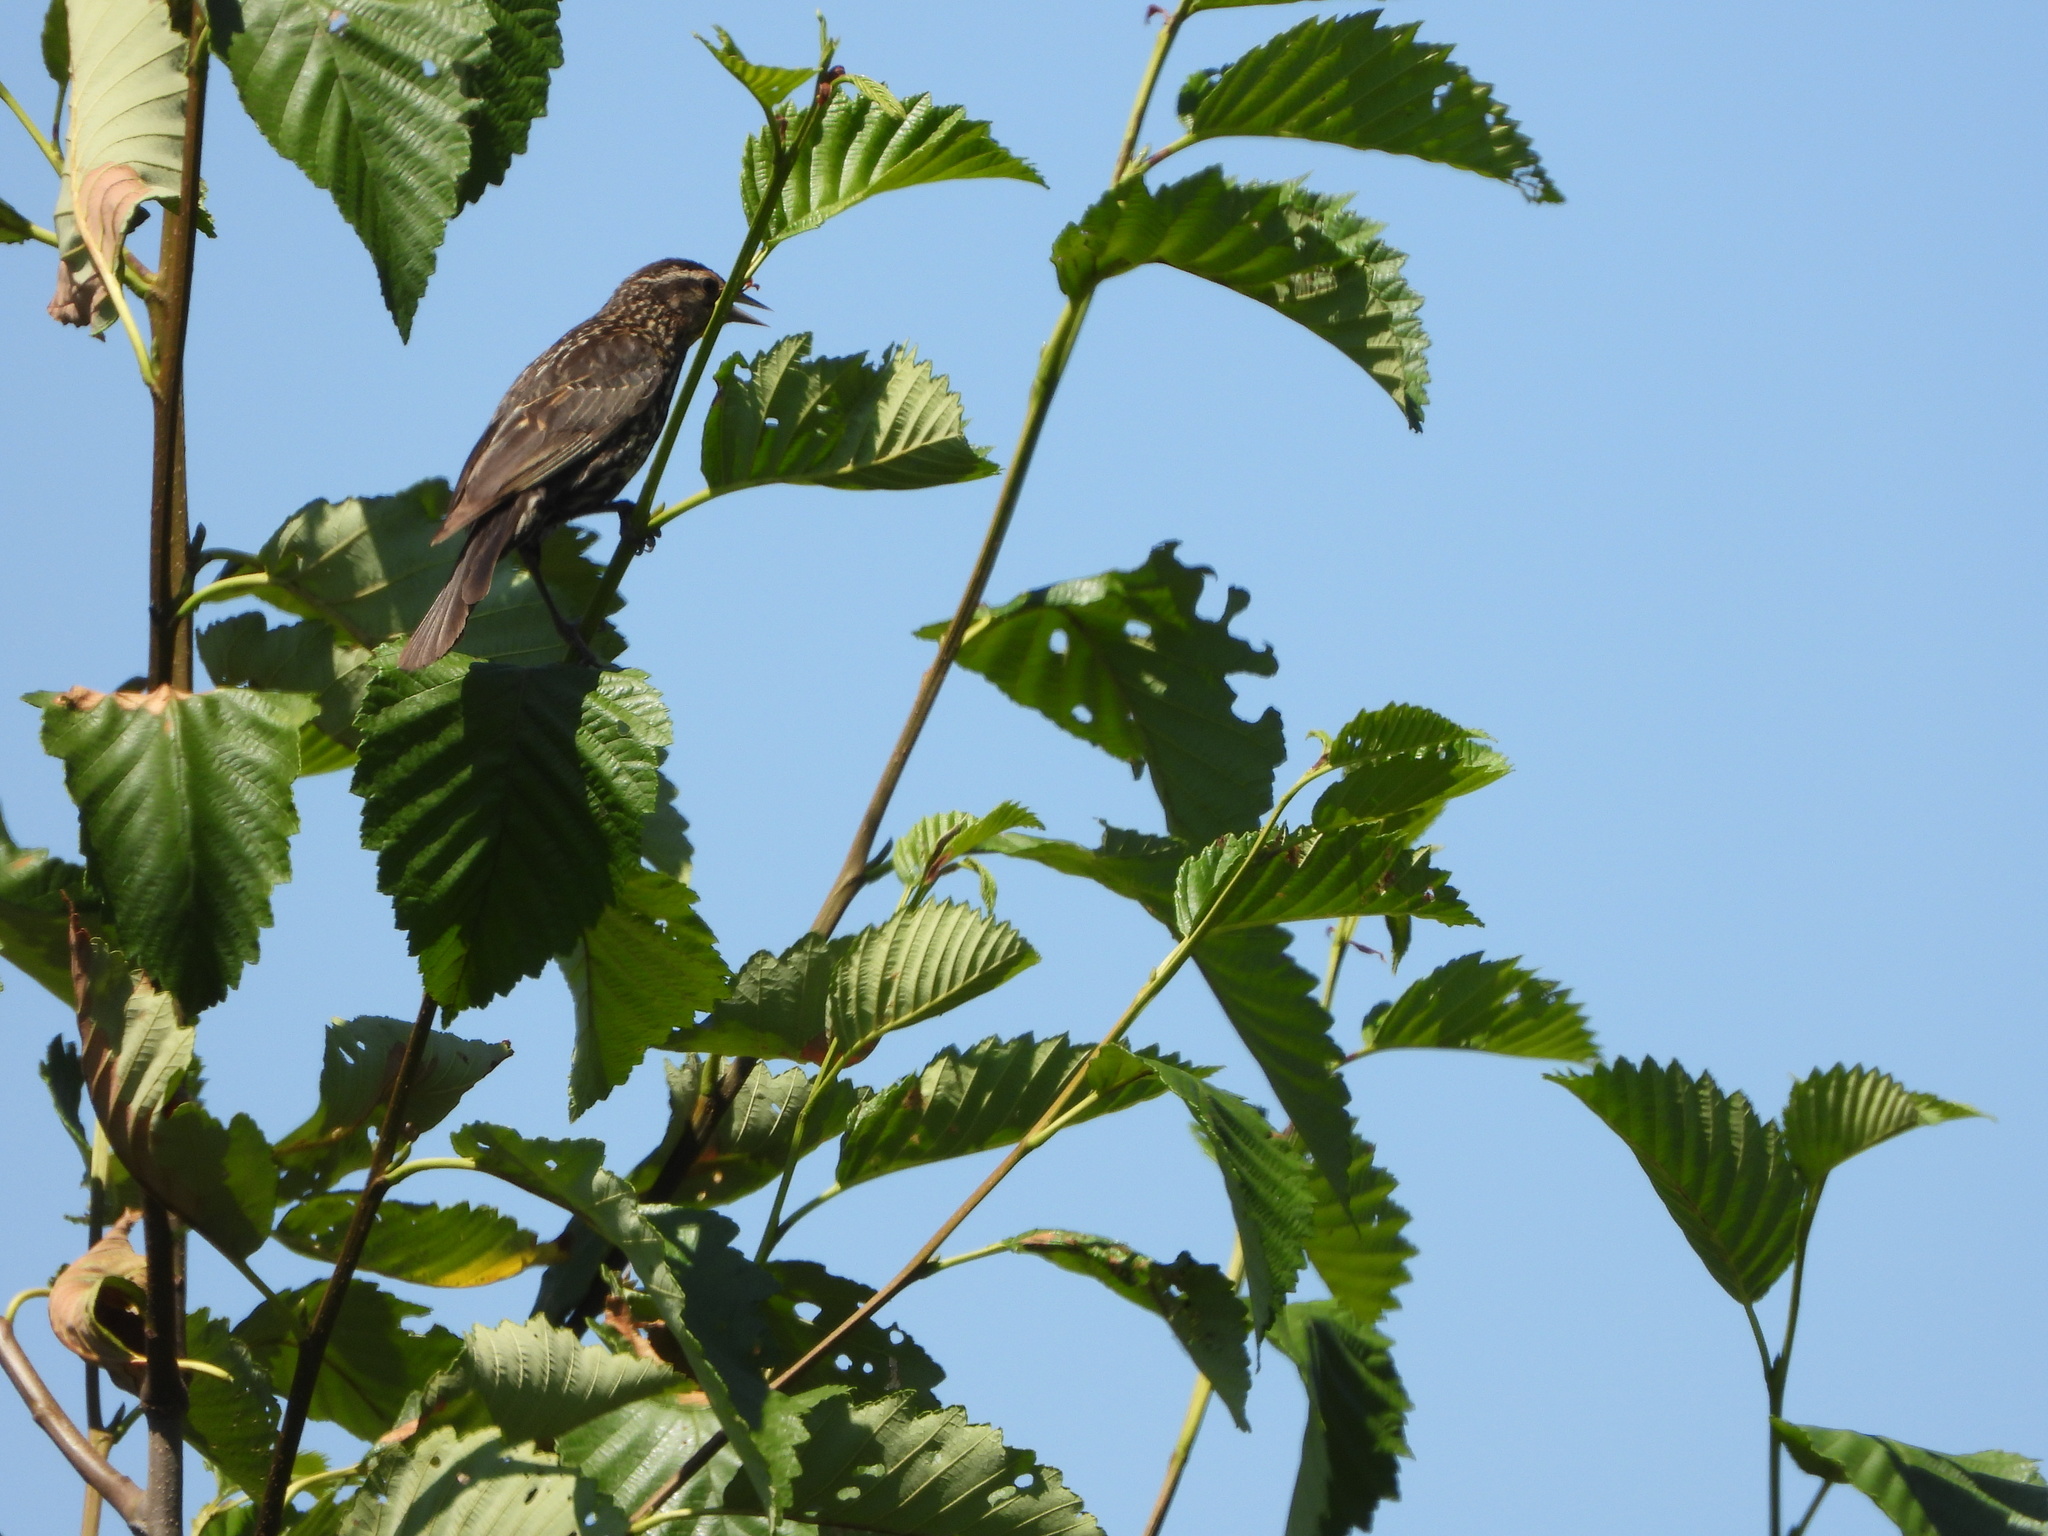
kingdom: Animalia
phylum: Chordata
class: Aves
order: Passeriformes
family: Icteridae
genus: Agelaius
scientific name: Agelaius phoeniceus
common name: Red-winged blackbird
